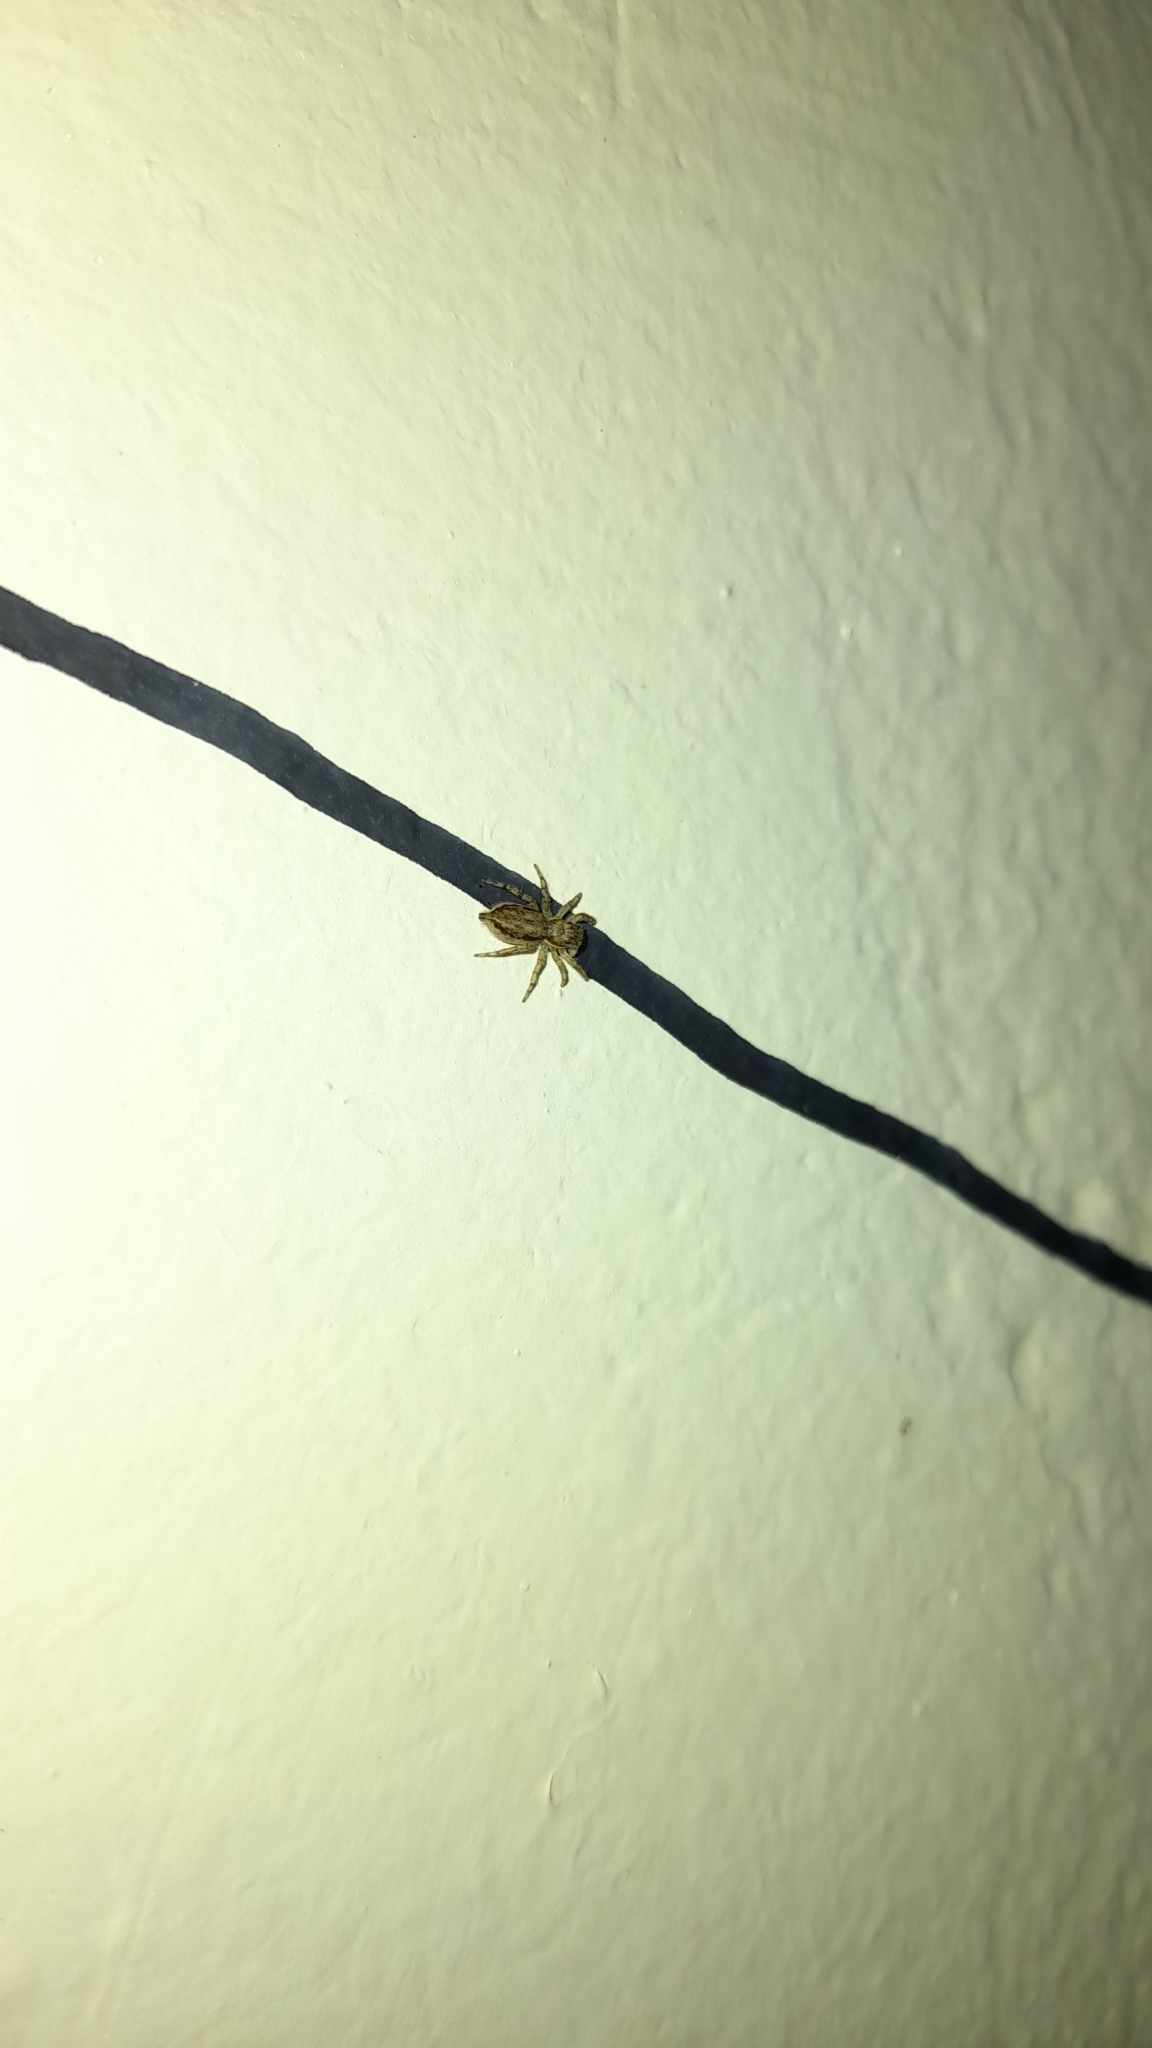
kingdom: Animalia
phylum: Arthropoda
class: Arachnida
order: Araneae
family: Salticidae
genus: Menemerus
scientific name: Menemerus bivittatus
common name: Gray wall jumper
